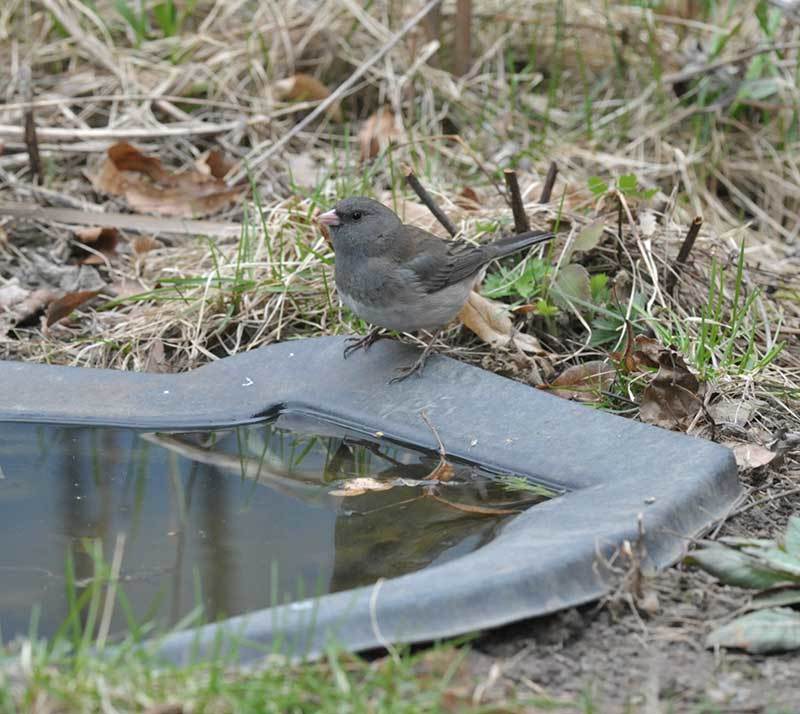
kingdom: Animalia
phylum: Chordata
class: Aves
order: Passeriformes
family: Passerellidae
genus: Junco
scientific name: Junco hyemalis
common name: Dark-eyed junco
